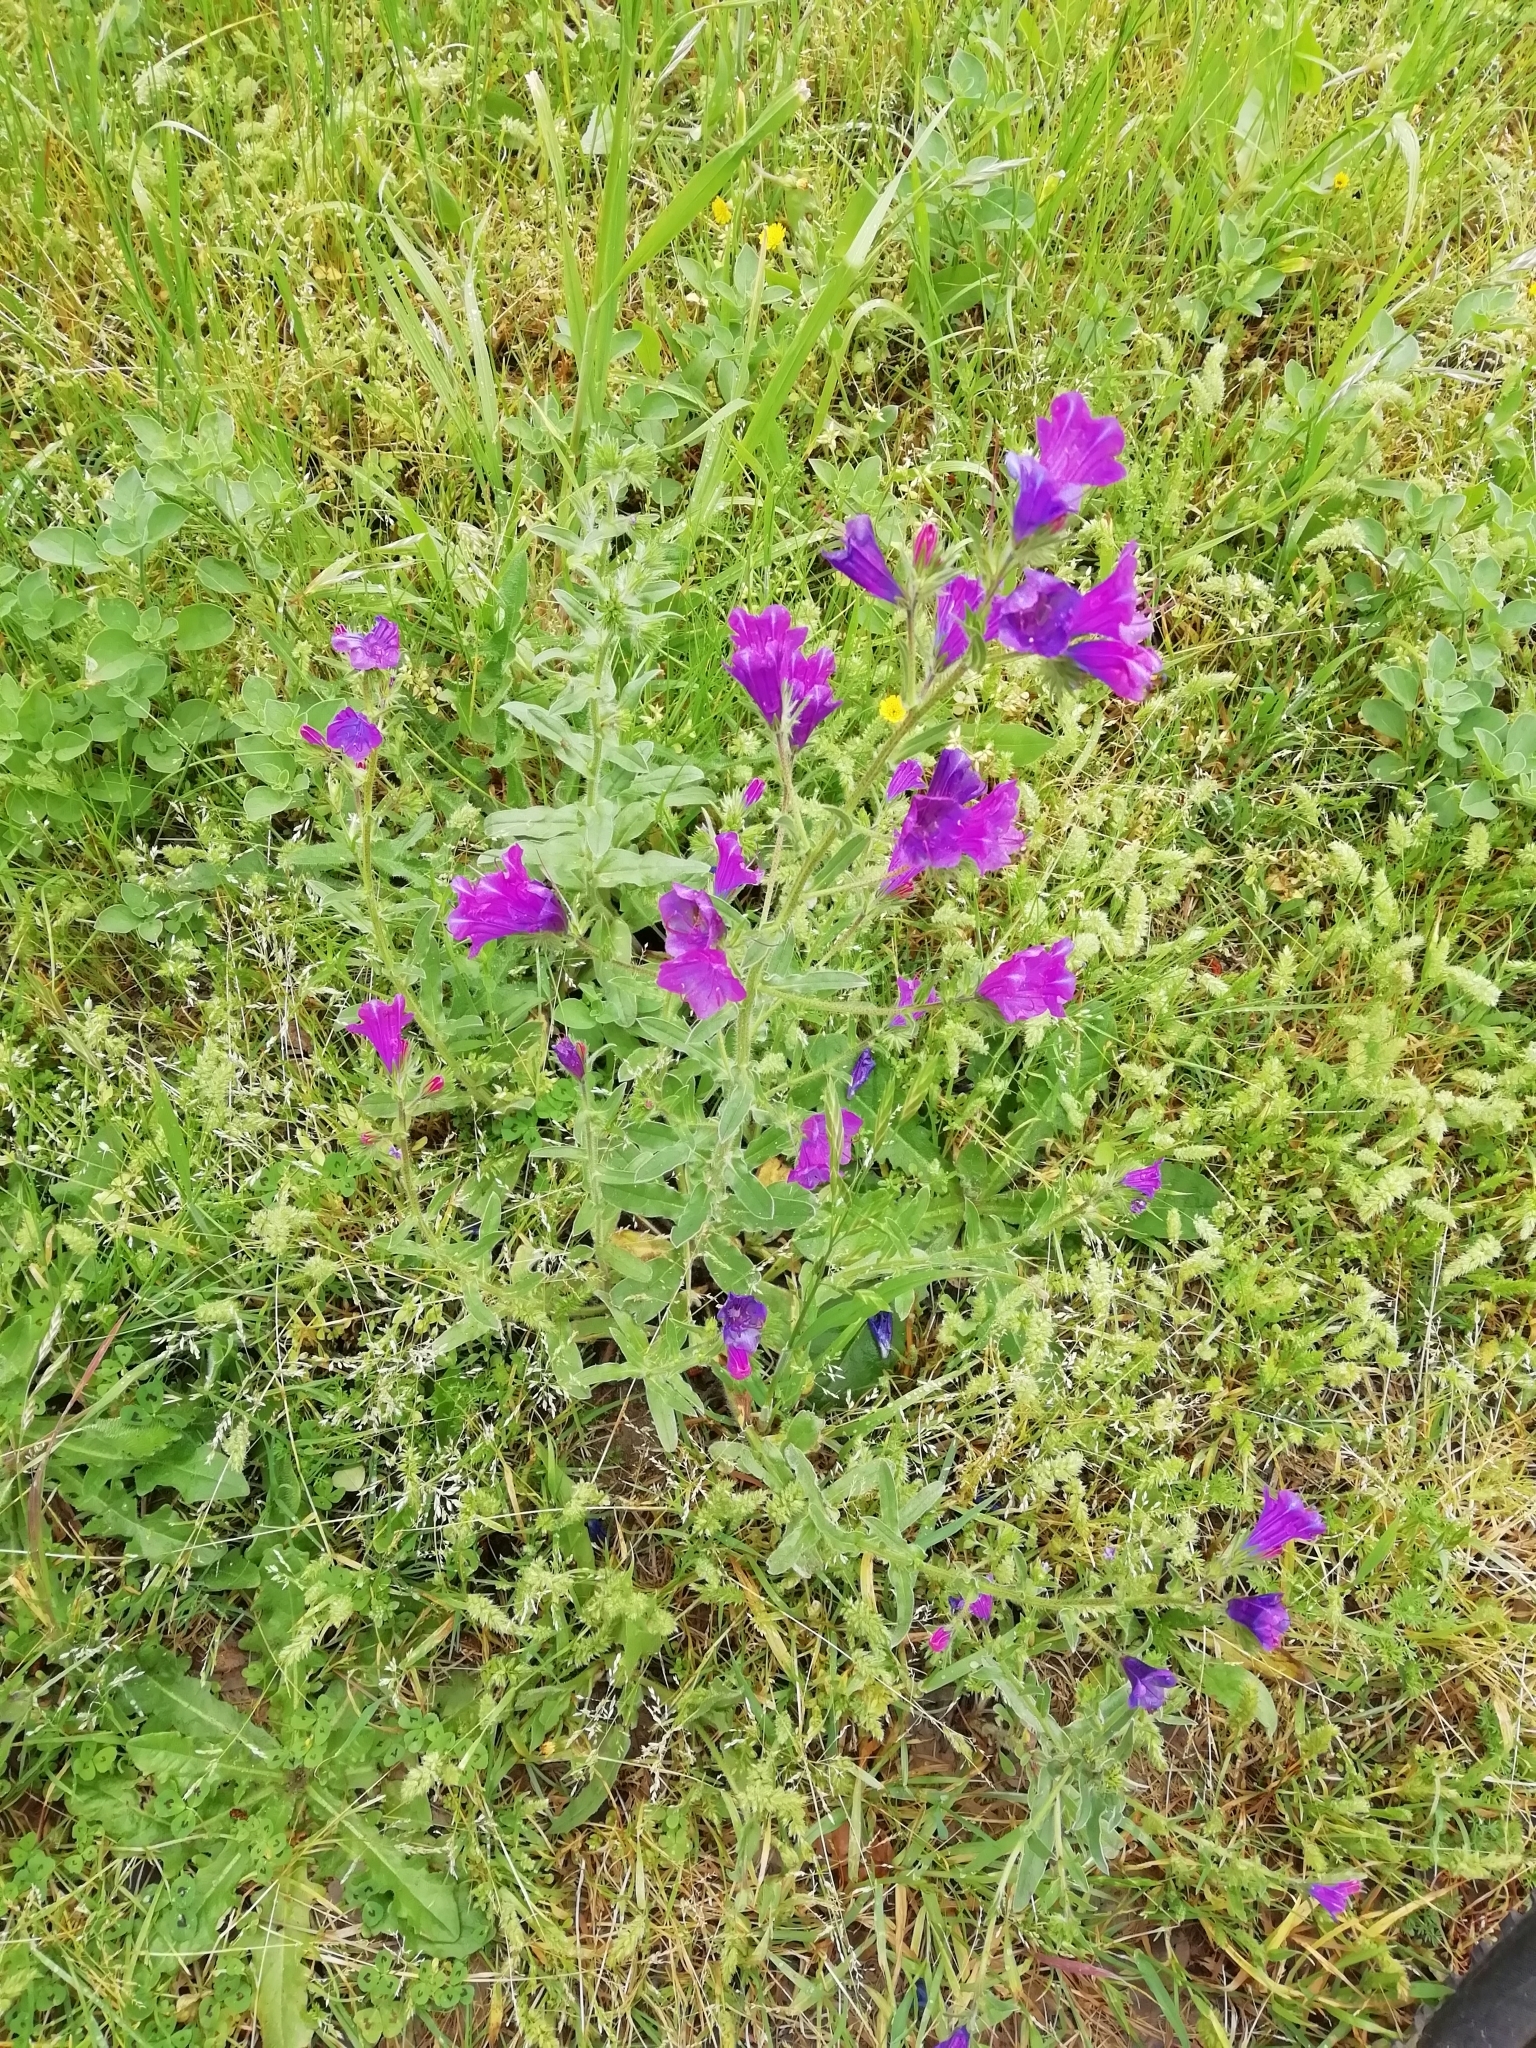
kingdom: Plantae
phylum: Tracheophyta
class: Magnoliopsida
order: Boraginales
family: Boraginaceae
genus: Echium
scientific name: Echium plantagineum
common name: Purple viper's-bugloss
